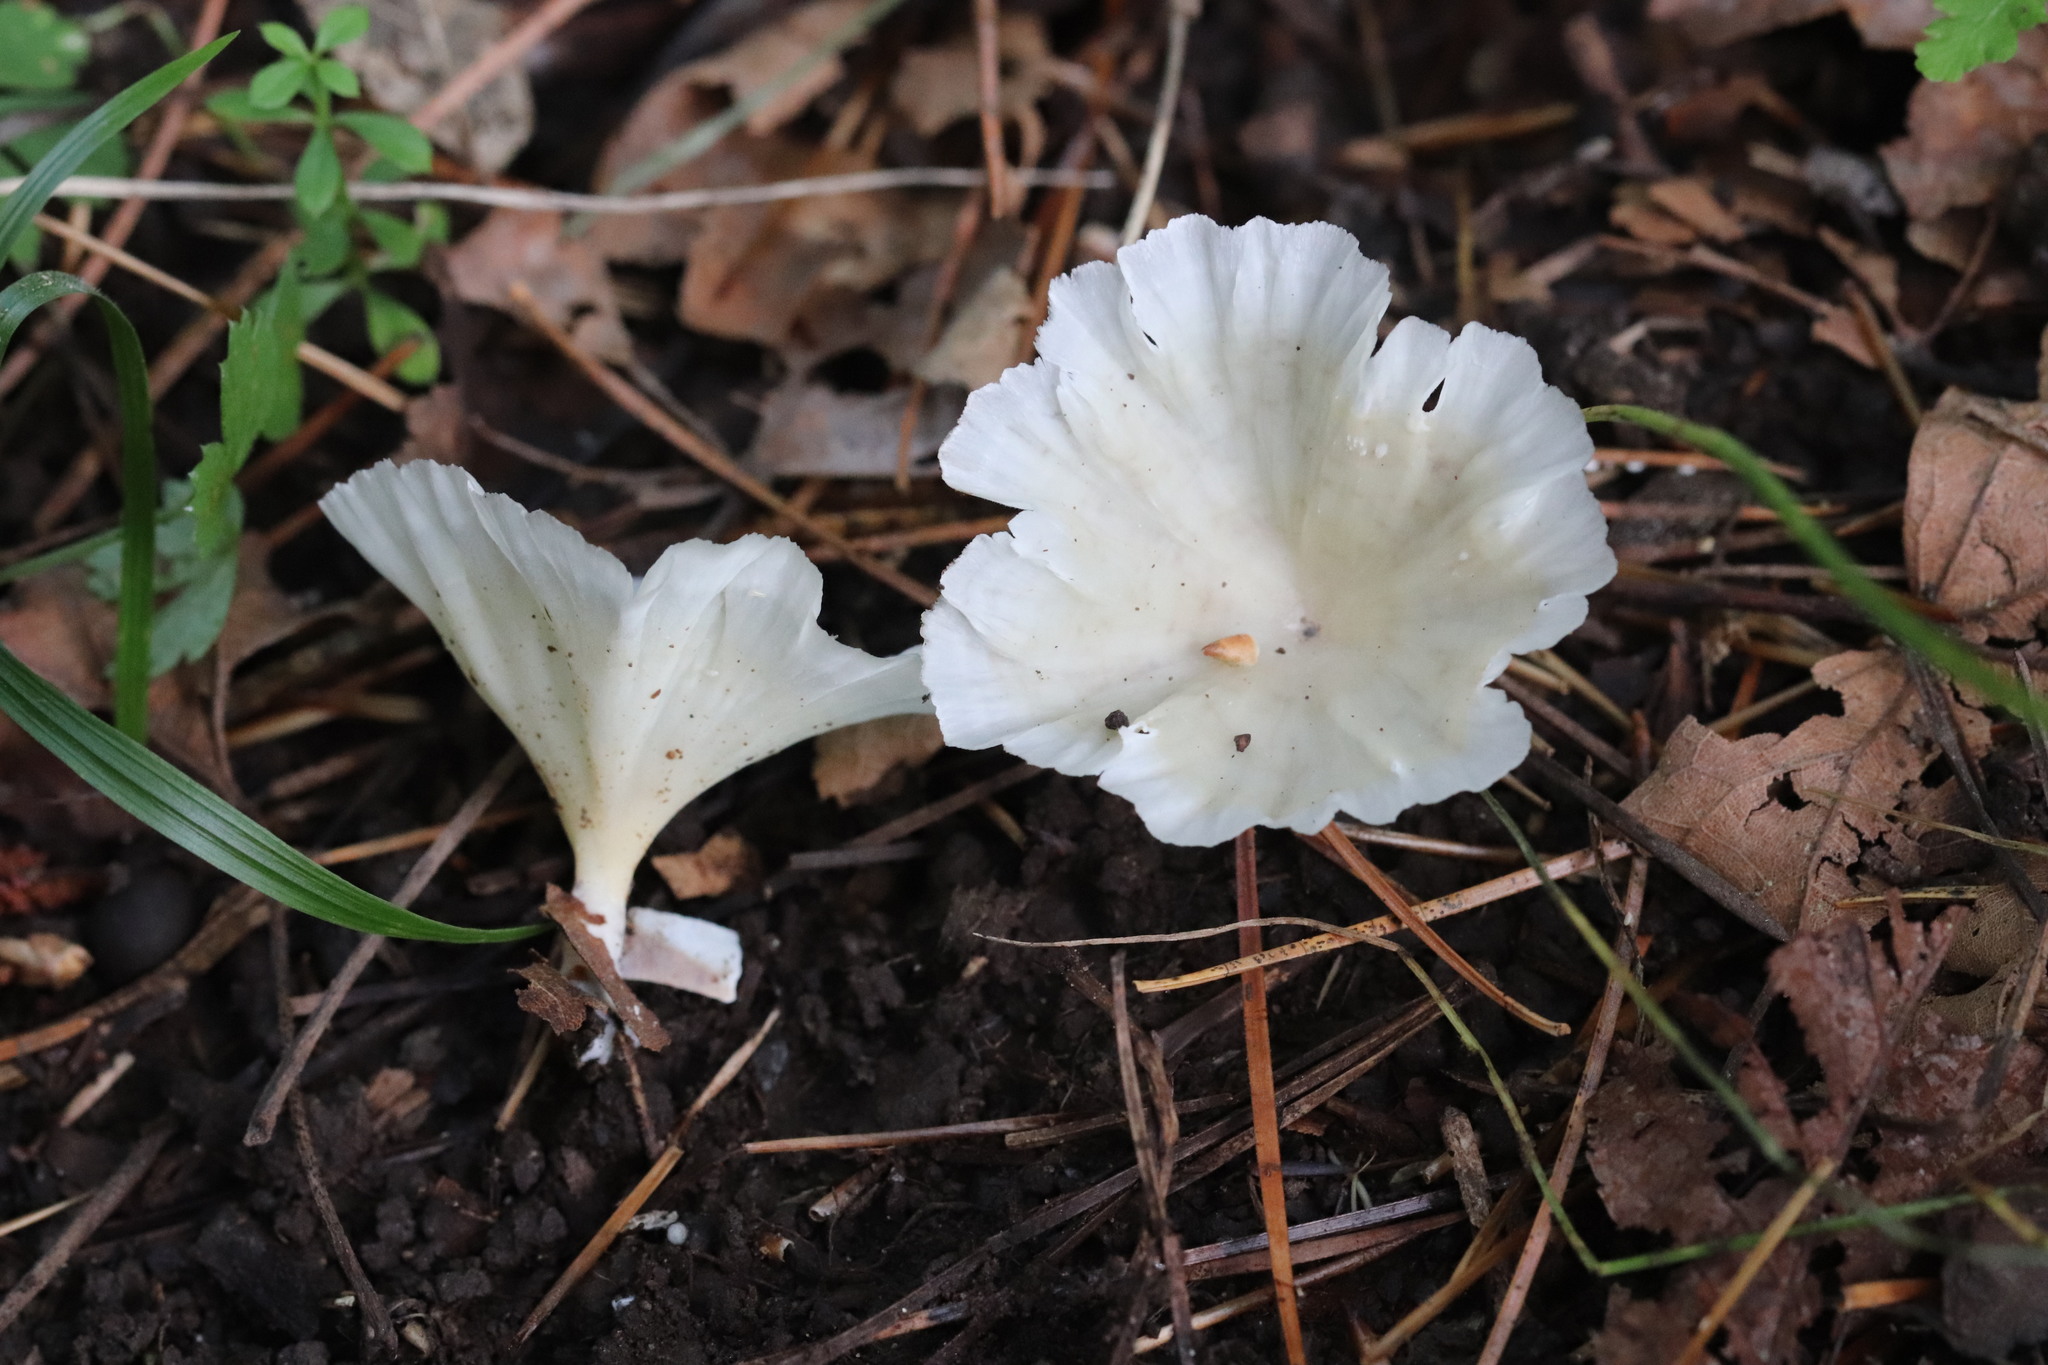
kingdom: Fungi
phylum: Basidiomycota
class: Agaricomycetes
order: Hymenochaetales
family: Rickenellaceae
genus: Cotylidia
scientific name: Cotylidia diaphana
